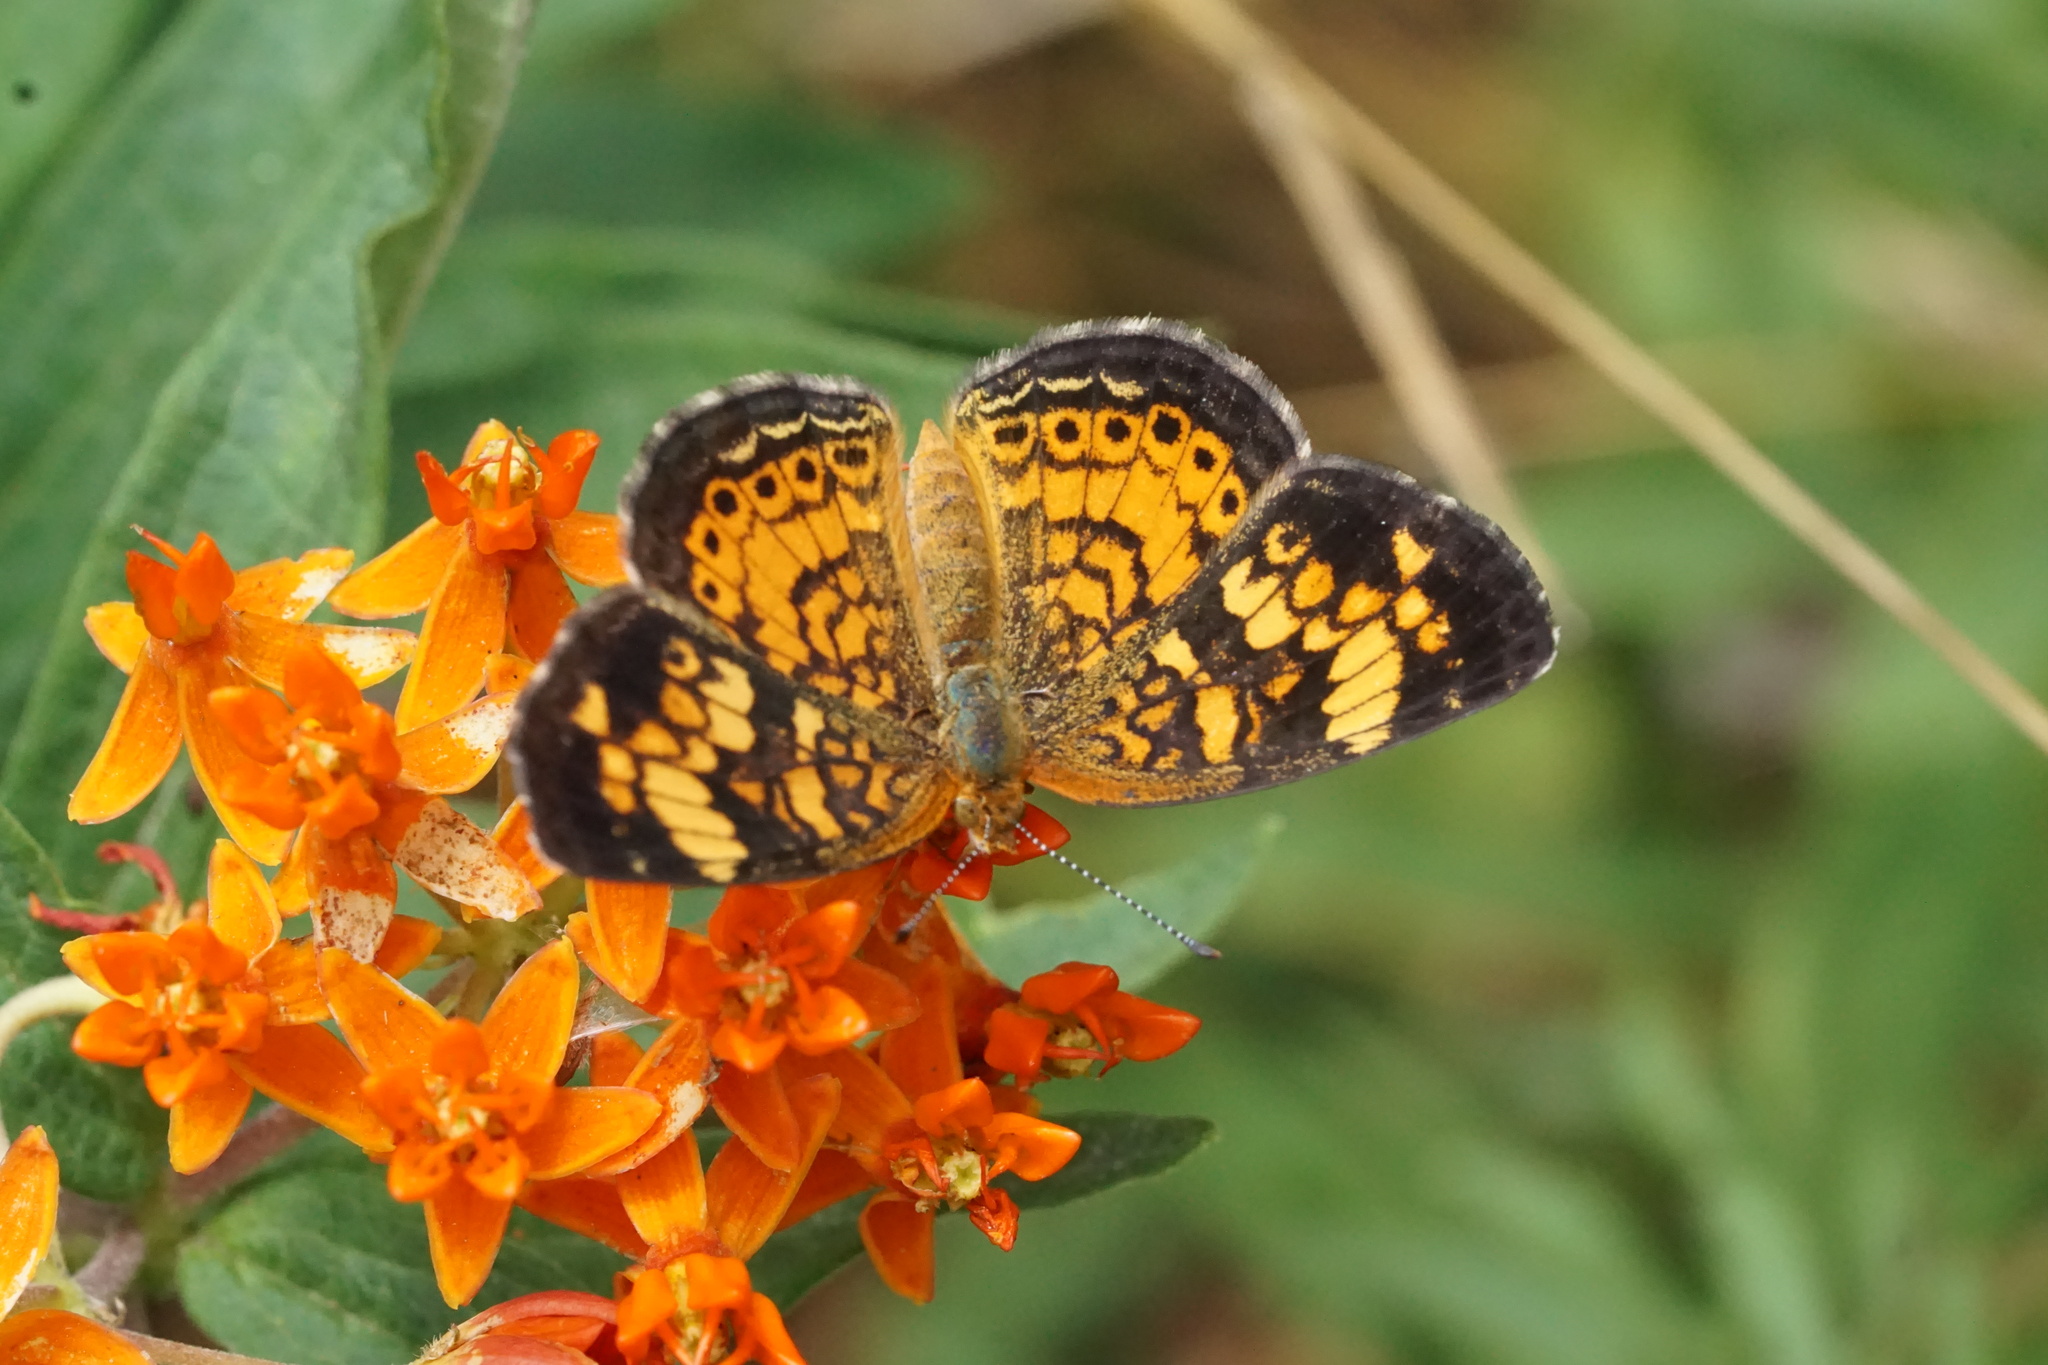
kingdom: Animalia
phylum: Arthropoda
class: Insecta
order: Lepidoptera
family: Nymphalidae
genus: Phyciodes
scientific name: Phyciodes tharos
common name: Pearl crescent
